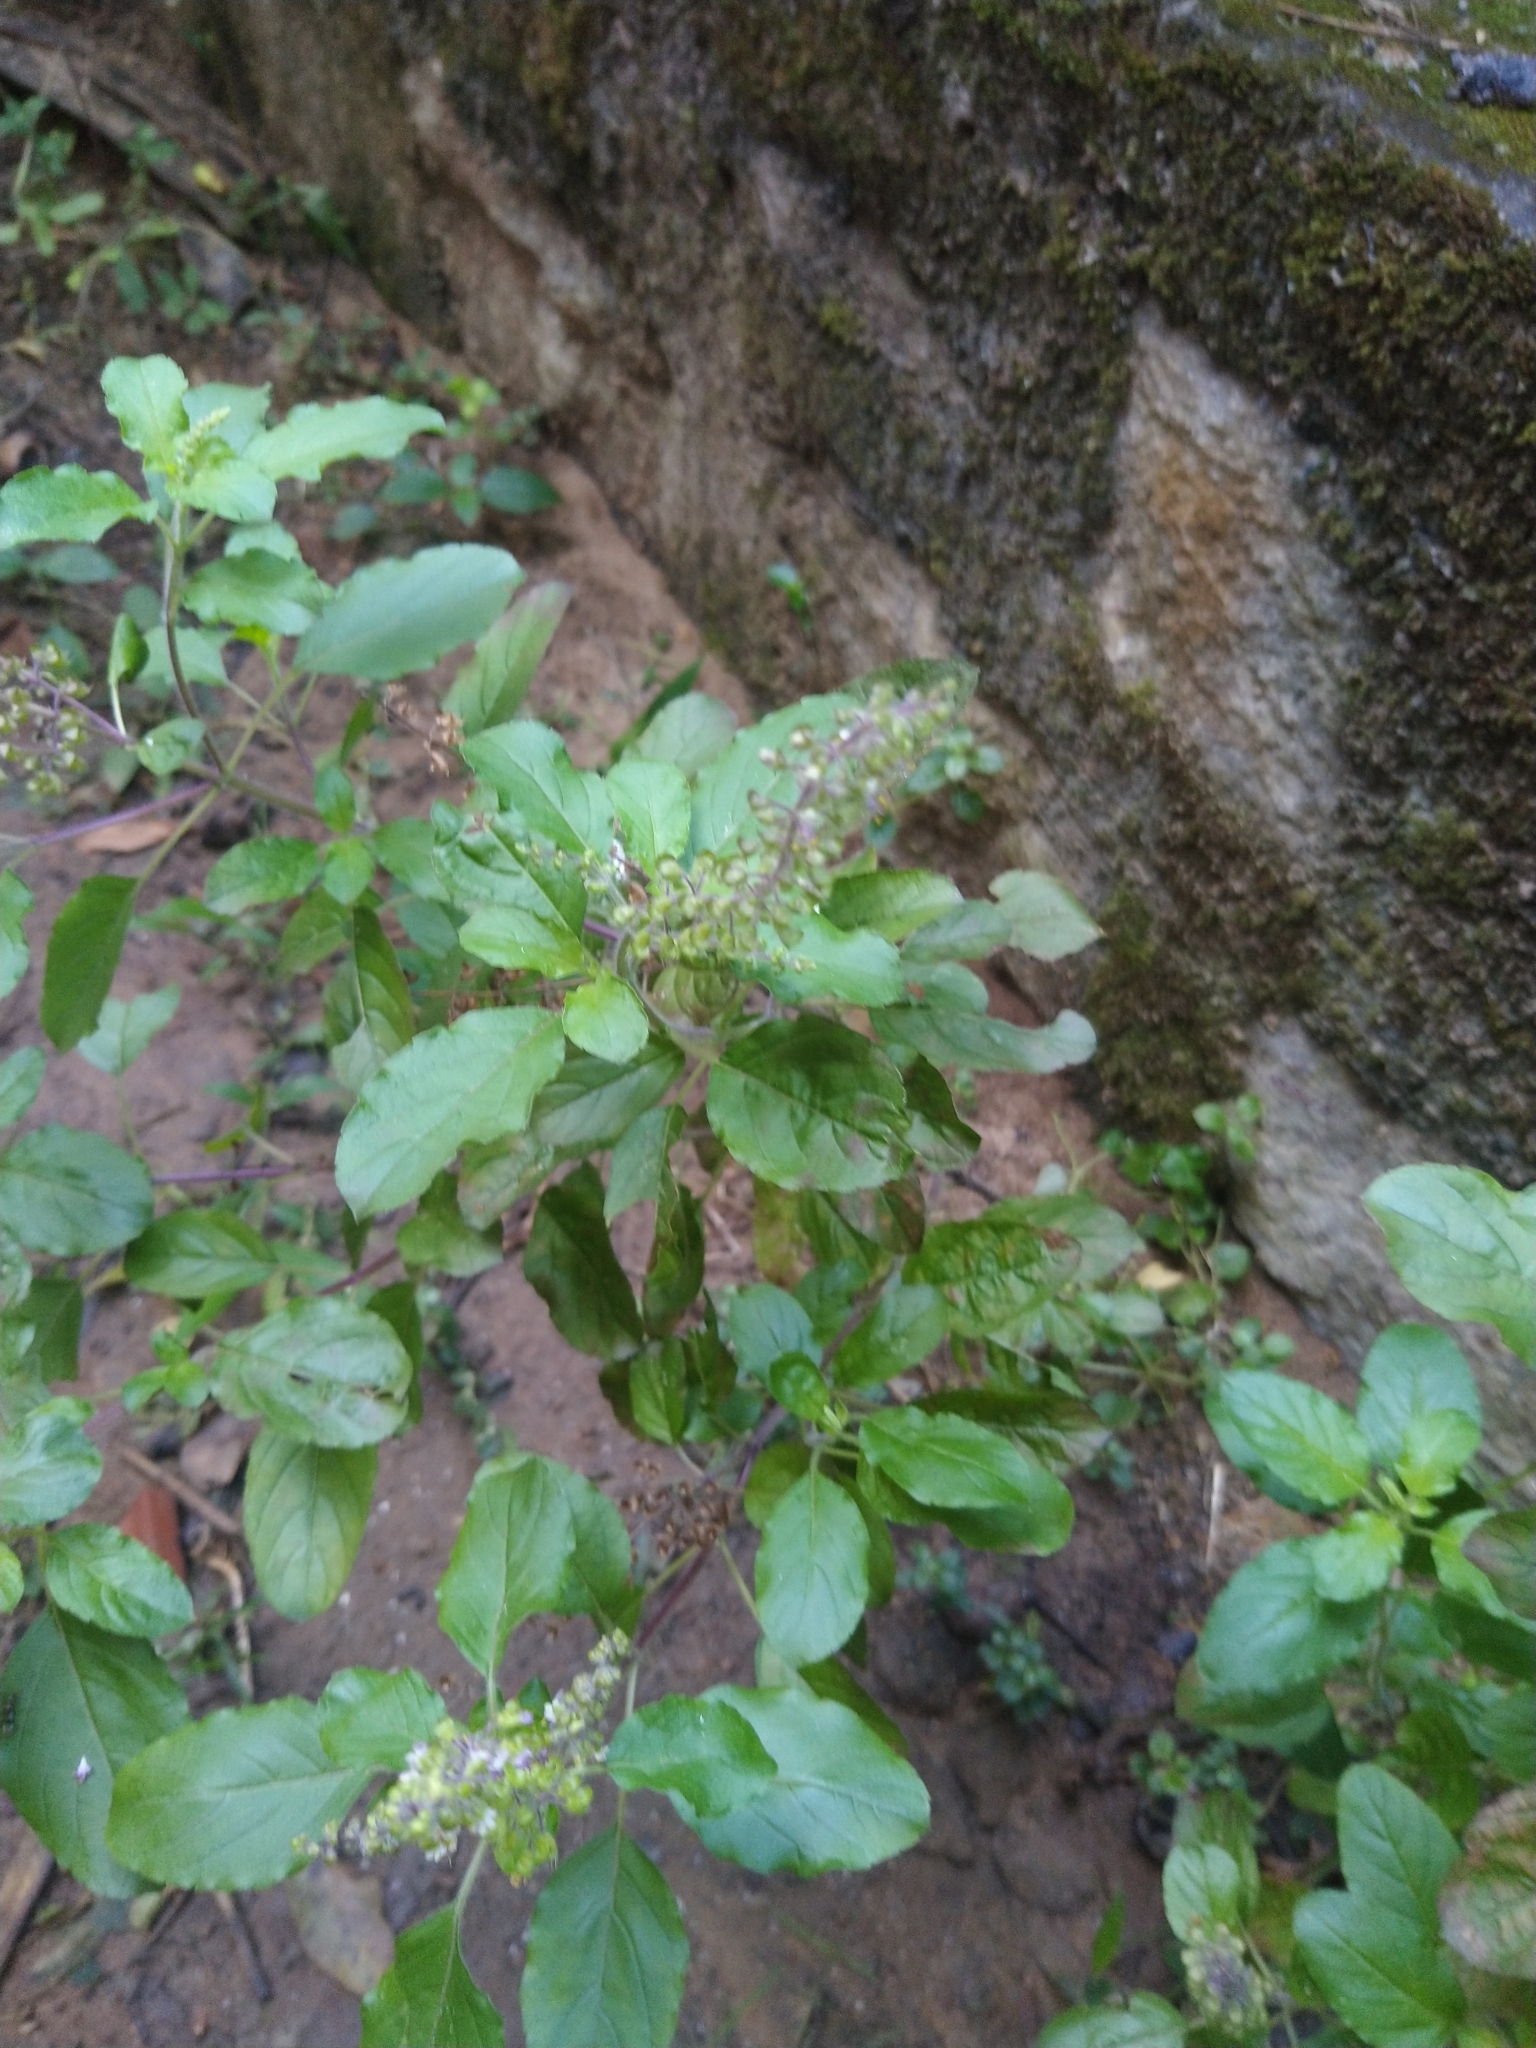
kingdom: Plantae
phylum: Tracheophyta
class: Magnoliopsida
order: Lamiales
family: Lamiaceae
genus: Ocimum
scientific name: Ocimum tenuiflorum
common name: Sacred basil
